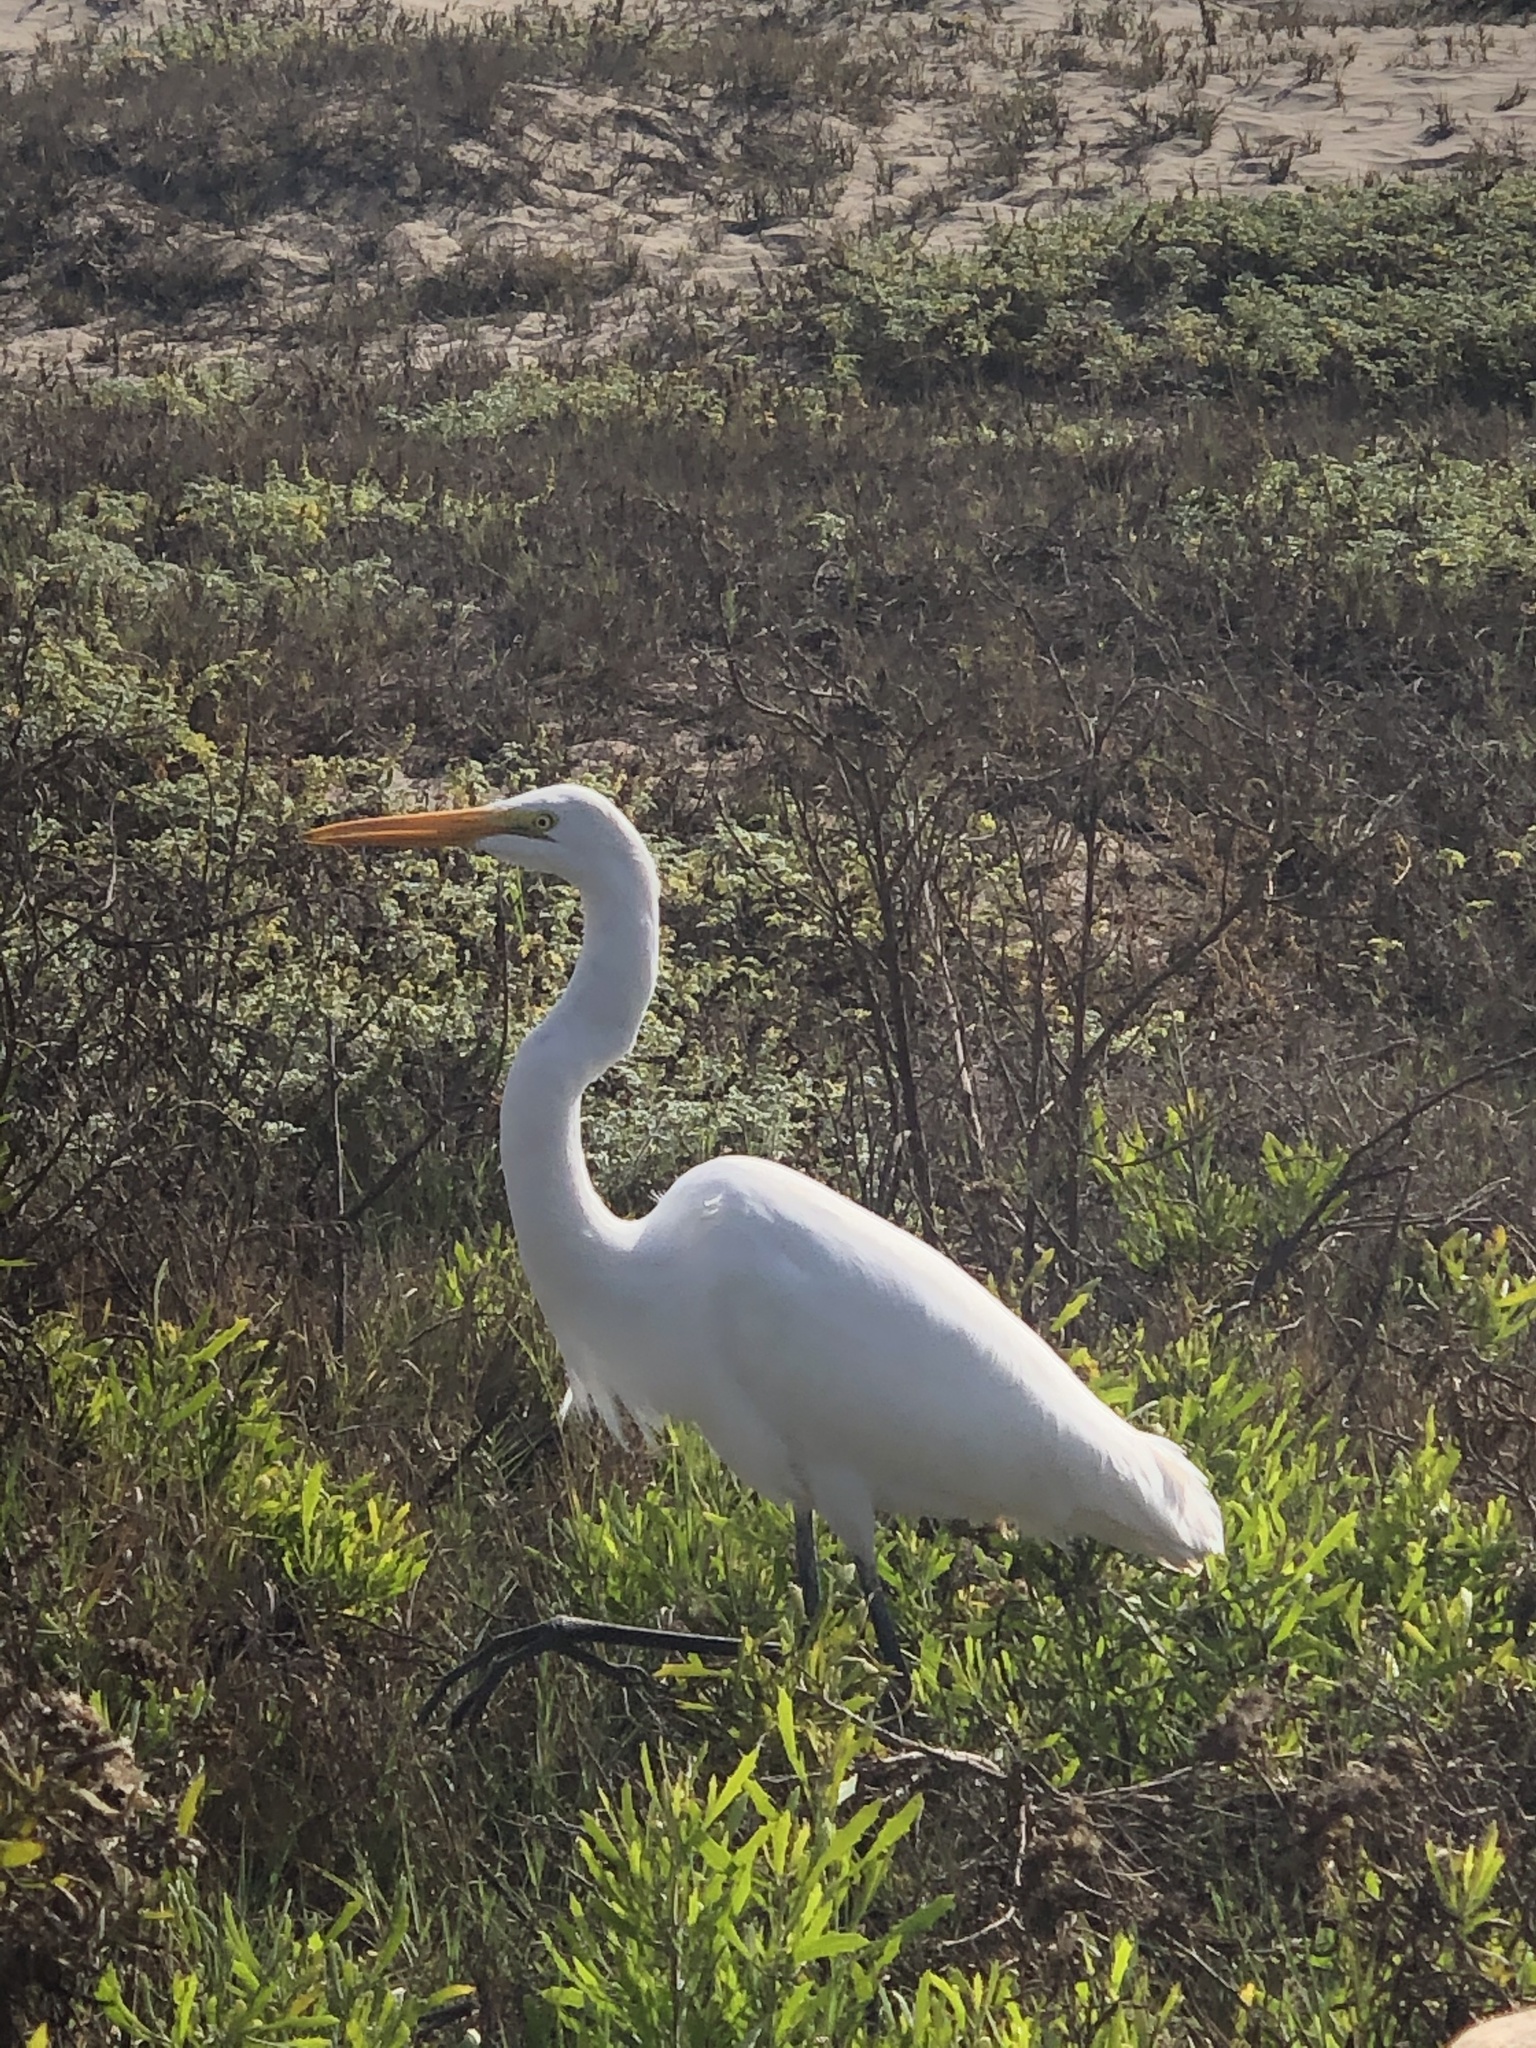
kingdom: Animalia
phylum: Chordata
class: Aves
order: Pelecaniformes
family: Ardeidae
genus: Ardea
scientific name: Ardea alba
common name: Great egret
